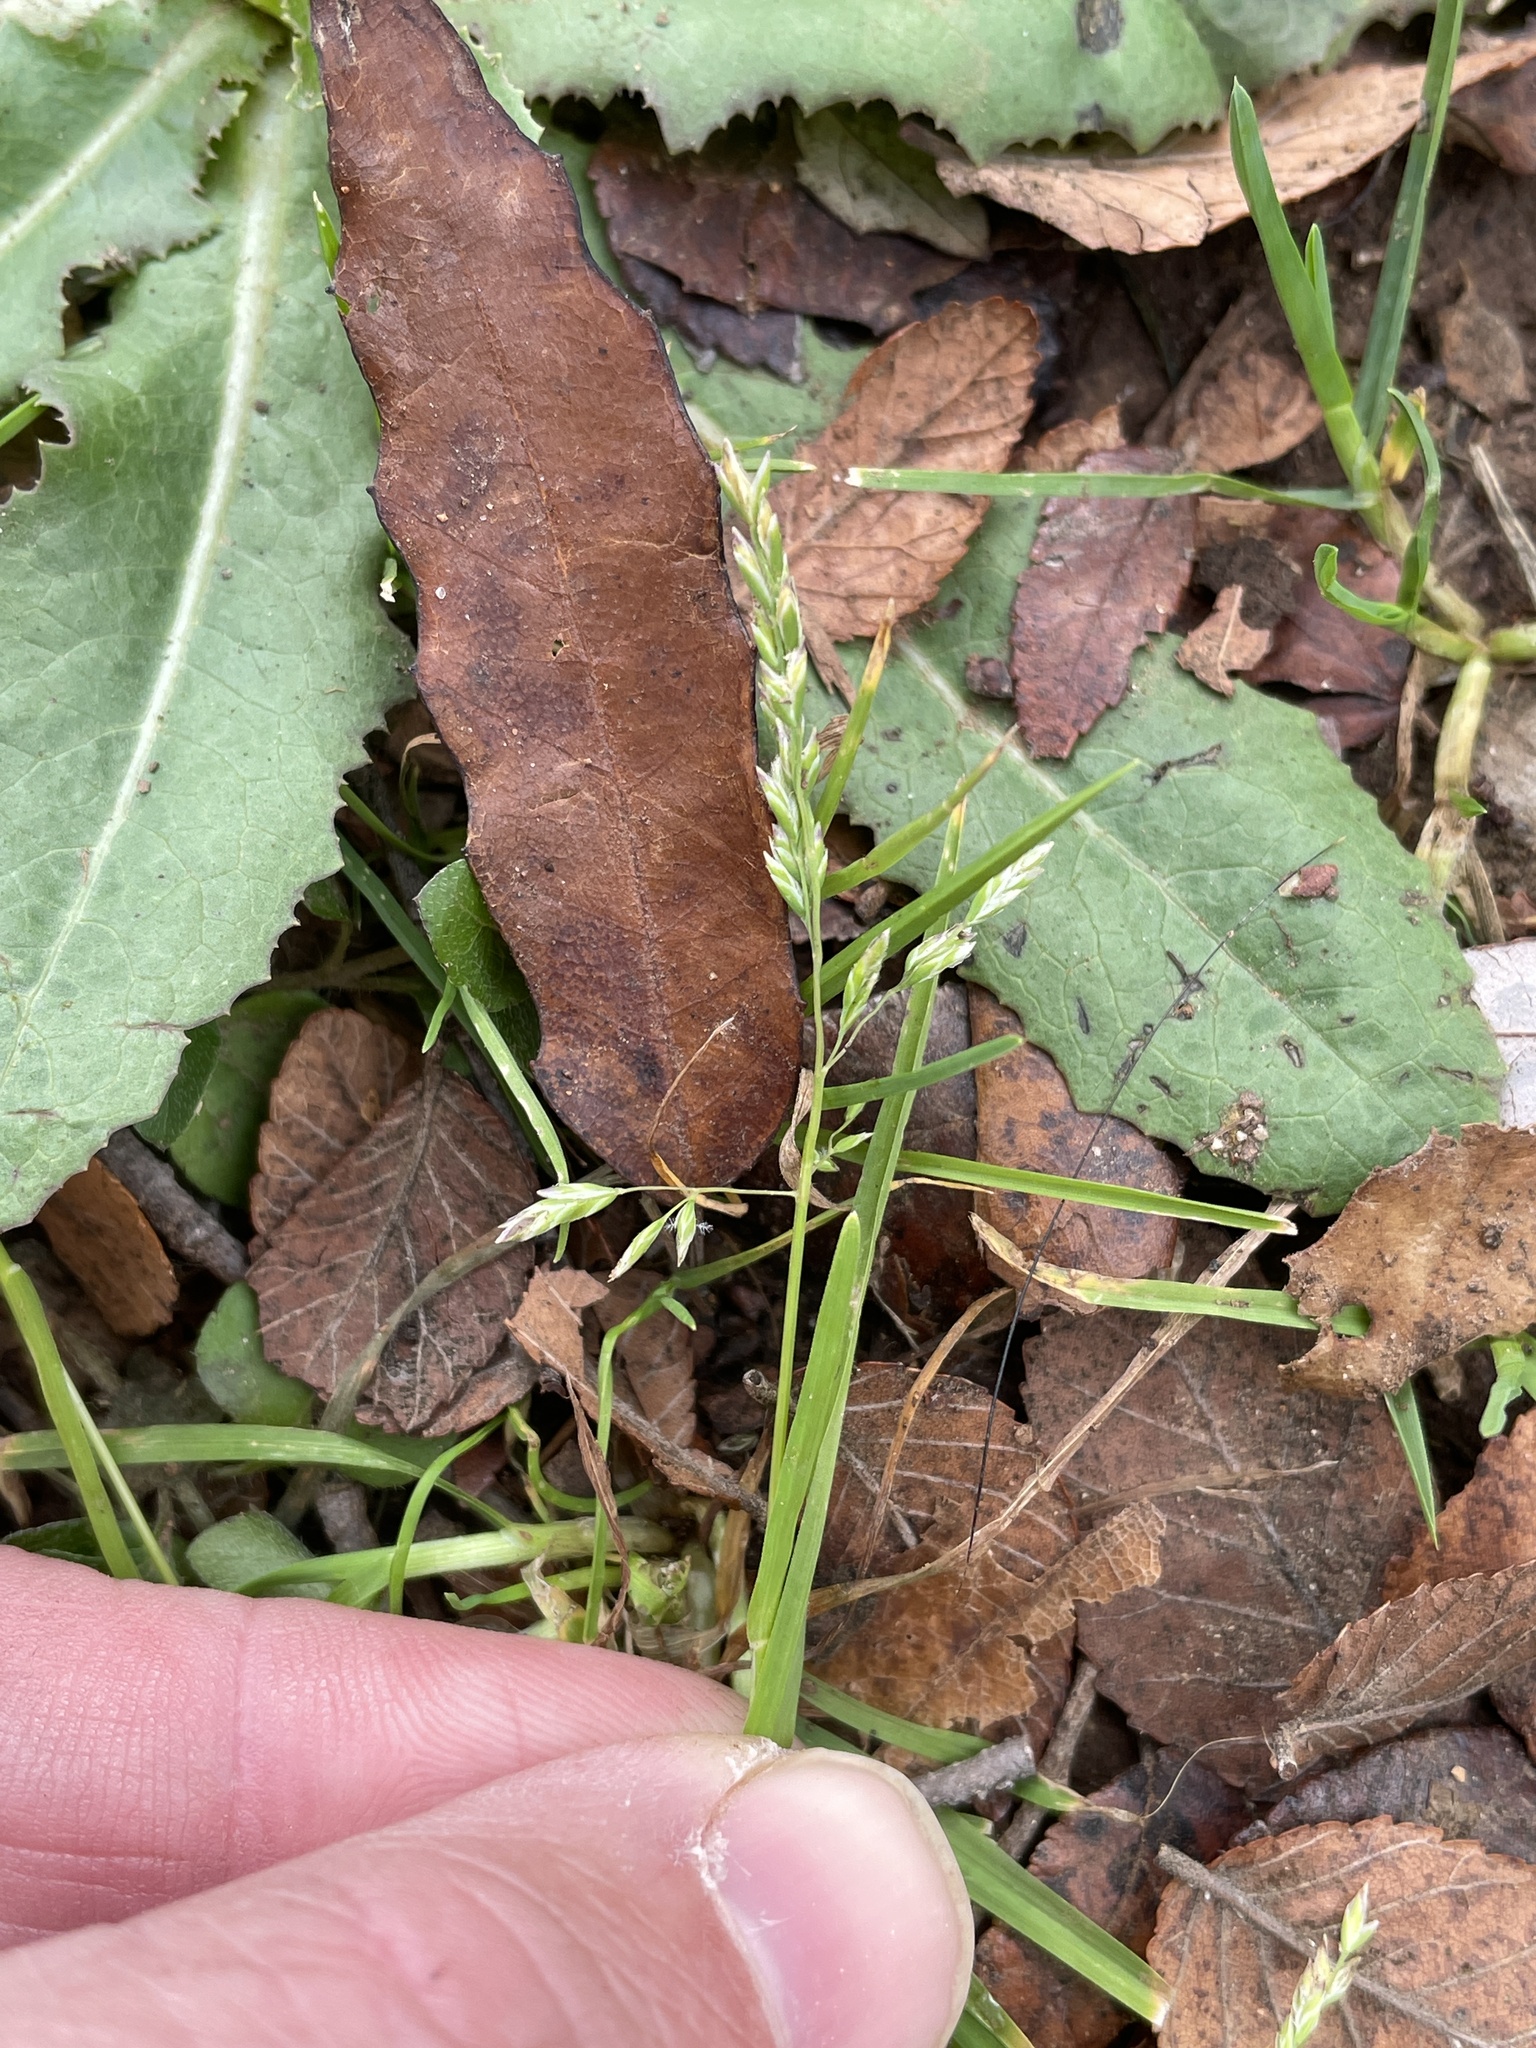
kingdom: Plantae
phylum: Tracheophyta
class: Liliopsida
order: Poales
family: Poaceae
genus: Poa
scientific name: Poa annua
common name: Annual bluegrass
